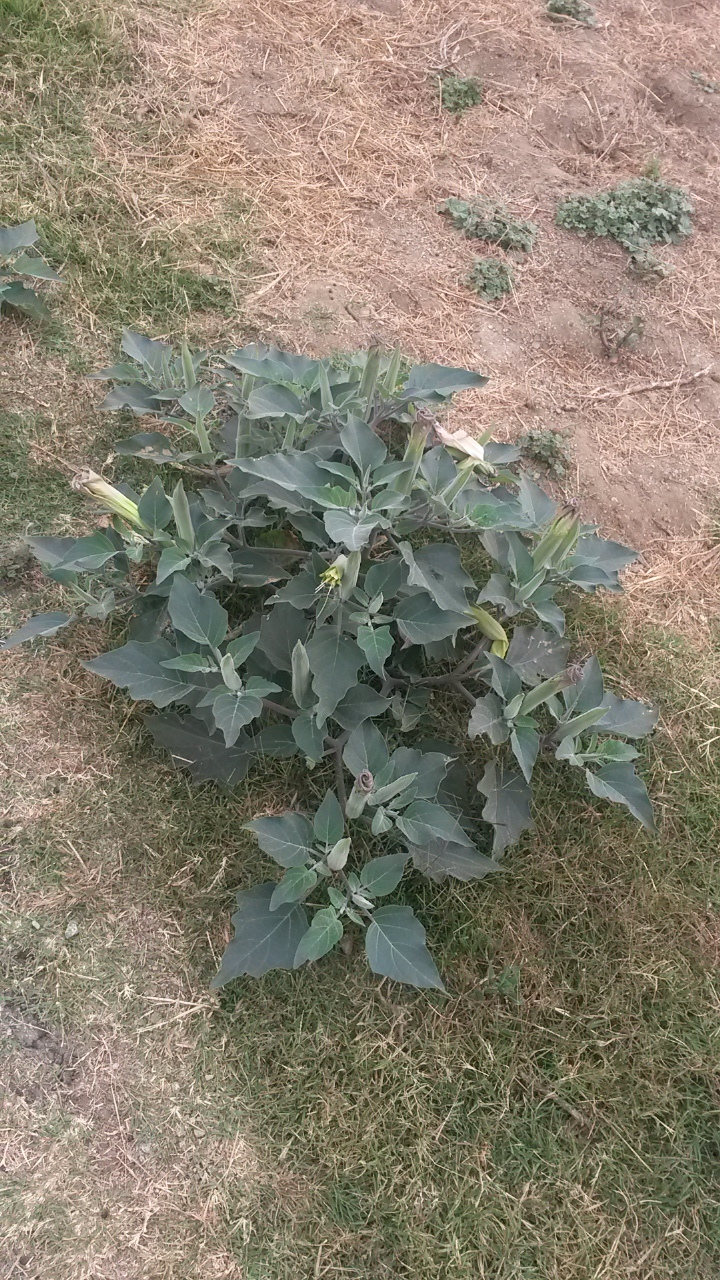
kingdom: Plantae
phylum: Tracheophyta
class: Magnoliopsida
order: Solanales
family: Solanaceae
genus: Datura
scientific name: Datura wrightii
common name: Sacred thorn-apple
